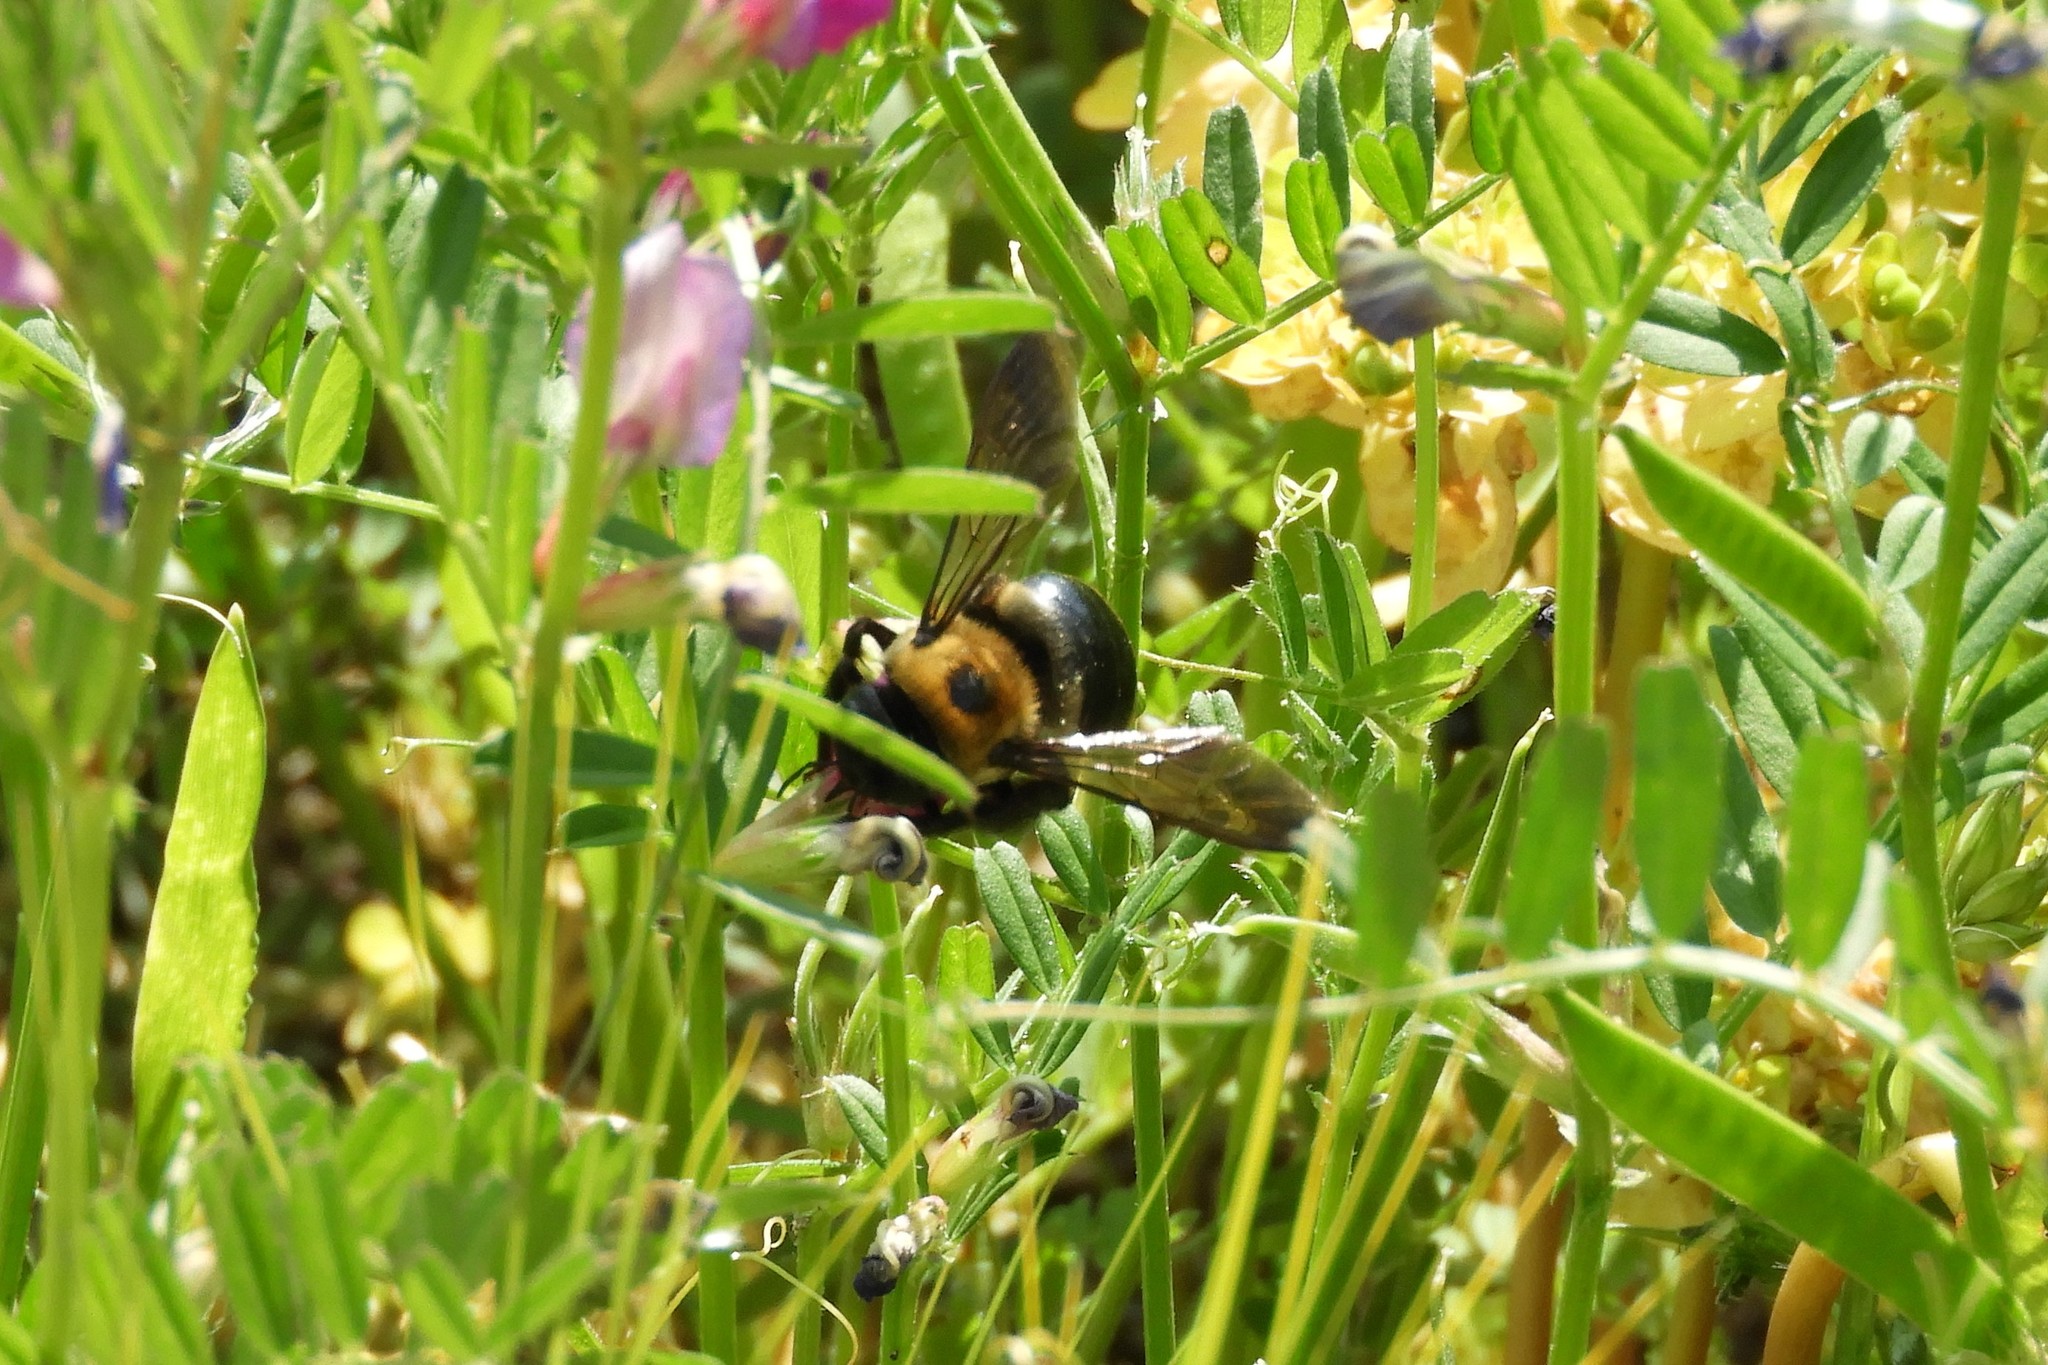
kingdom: Animalia
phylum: Arthropoda
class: Insecta
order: Hymenoptera
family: Apidae
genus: Xylocopa
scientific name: Xylocopa virginica
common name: Carpenter bee
